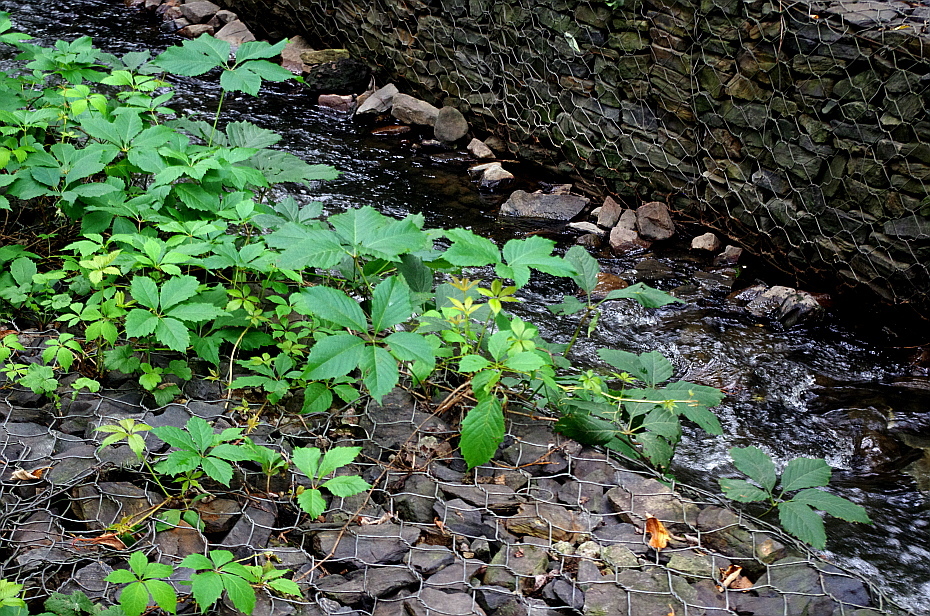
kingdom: Plantae
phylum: Tracheophyta
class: Magnoliopsida
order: Vitales
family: Vitaceae
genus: Parthenocissus
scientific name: Parthenocissus inserta
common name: False virginia-creeper
